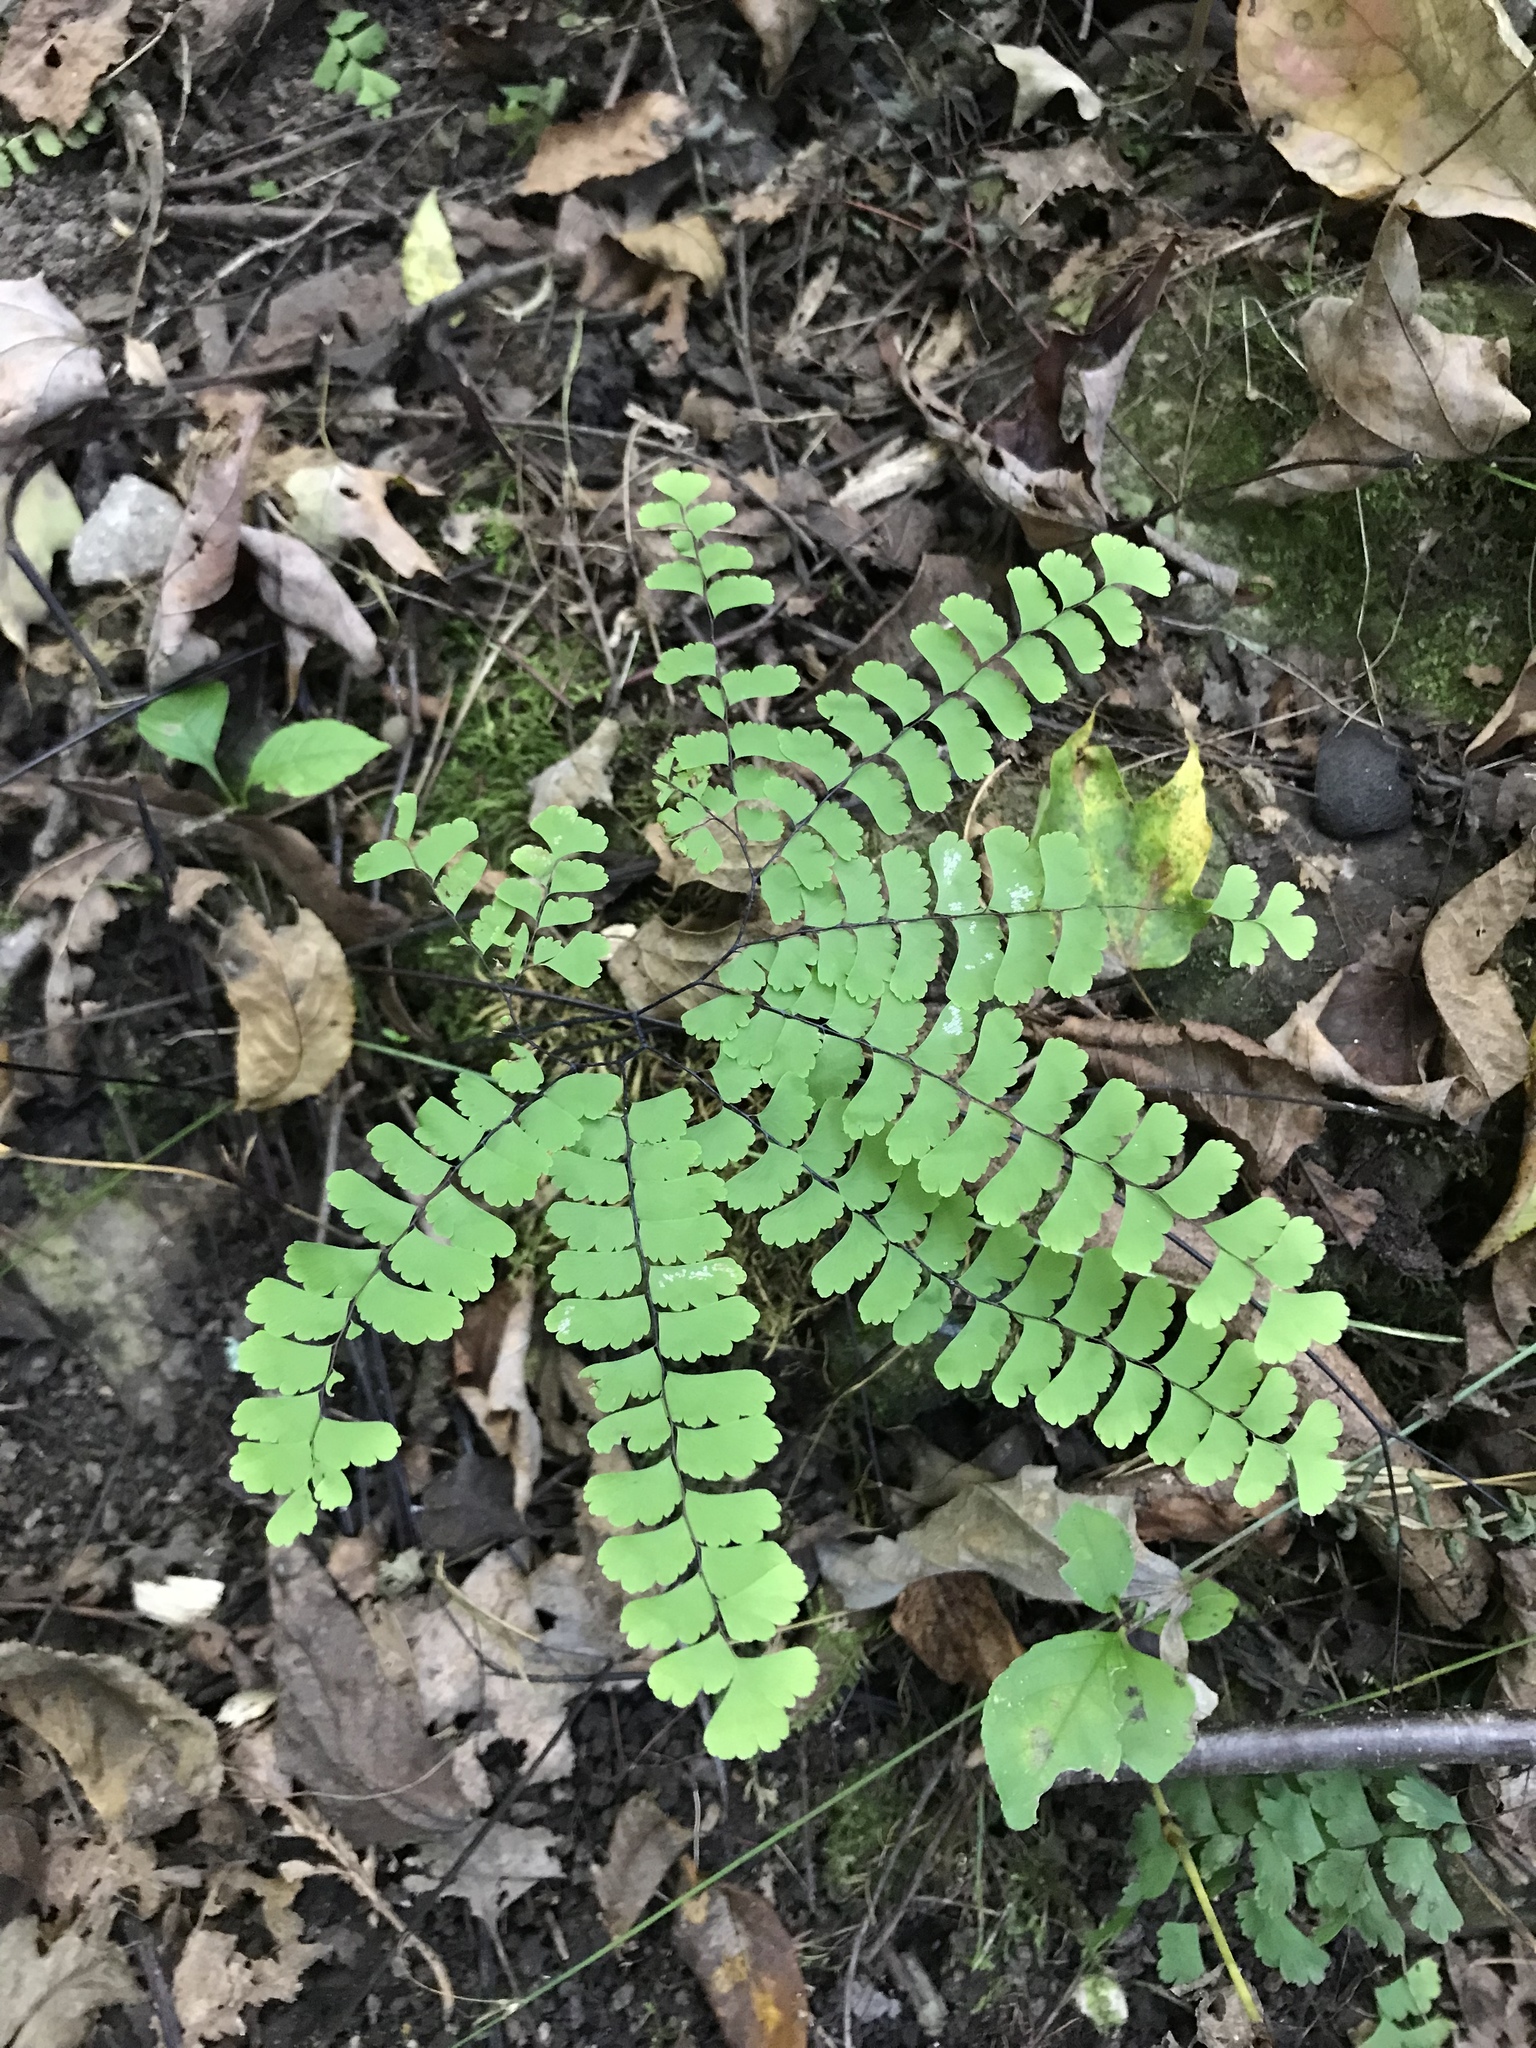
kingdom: Plantae
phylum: Tracheophyta
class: Polypodiopsida
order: Polypodiales
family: Pteridaceae
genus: Adiantum
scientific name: Adiantum pedatum
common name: Five-finger fern
